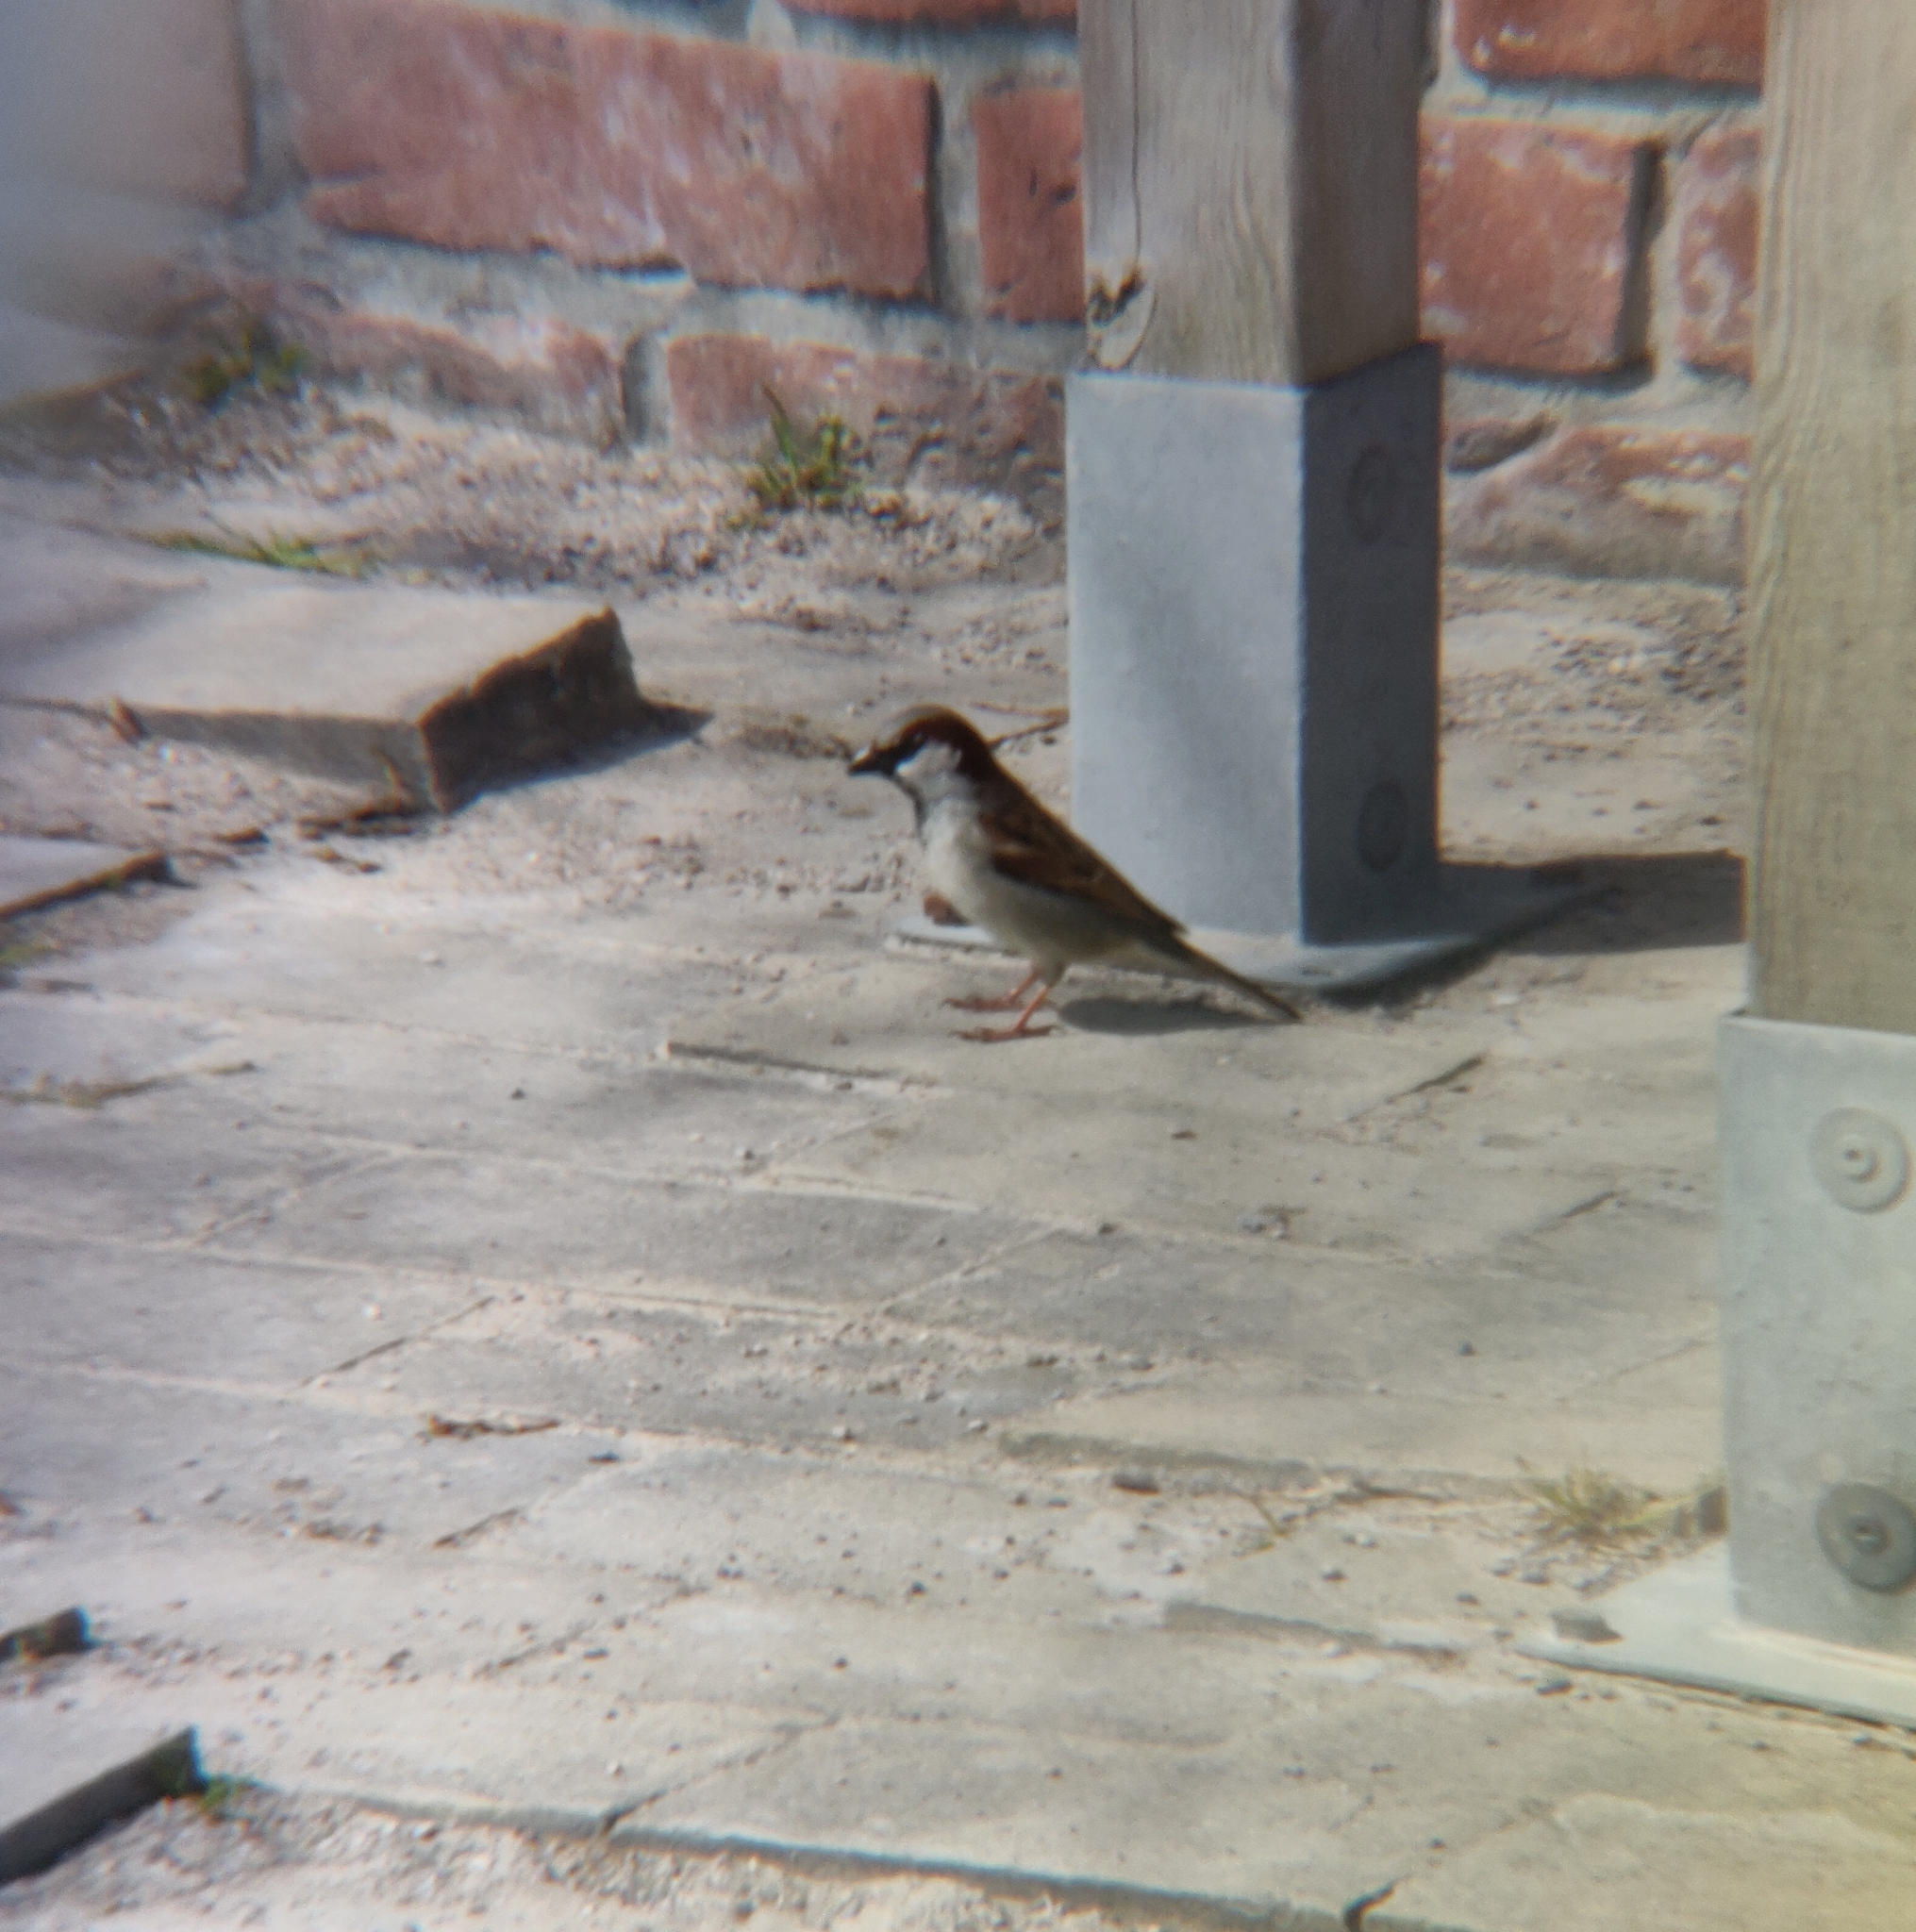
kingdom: Animalia
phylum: Chordata
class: Aves
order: Passeriformes
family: Passeridae
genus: Passer
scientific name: Passer domesticus
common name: House sparrow
